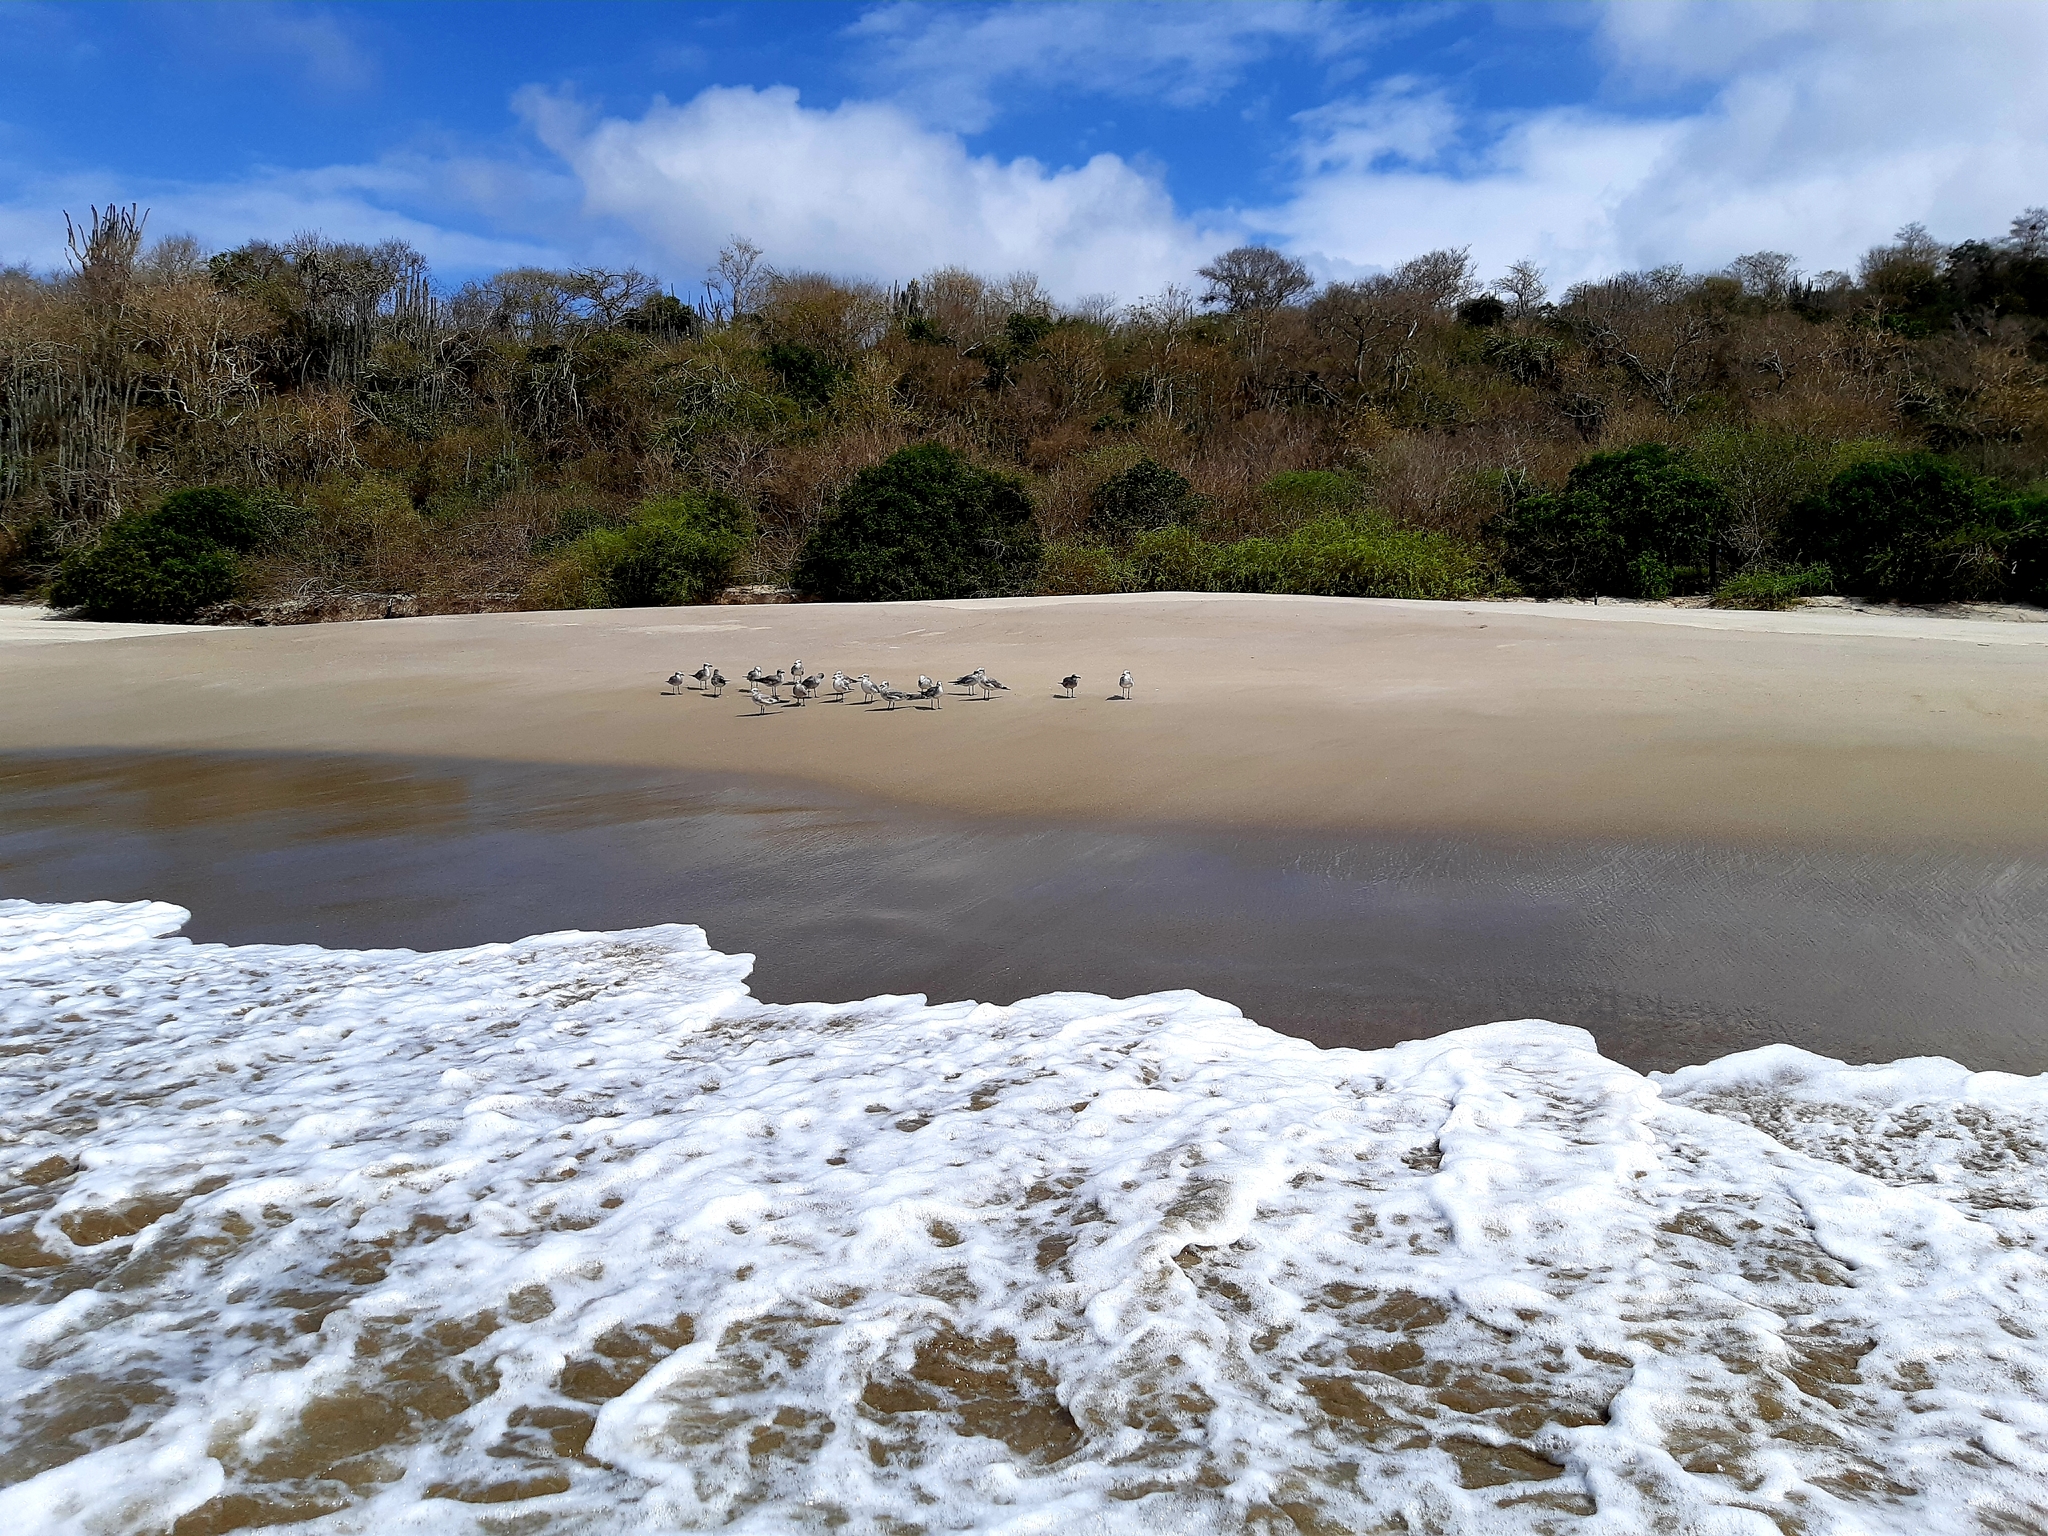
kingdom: Animalia
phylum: Chordata
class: Aves
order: Charadriiformes
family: Laridae
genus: Leucophaeus
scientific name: Leucophaeus atricilla
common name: Laughing gull
